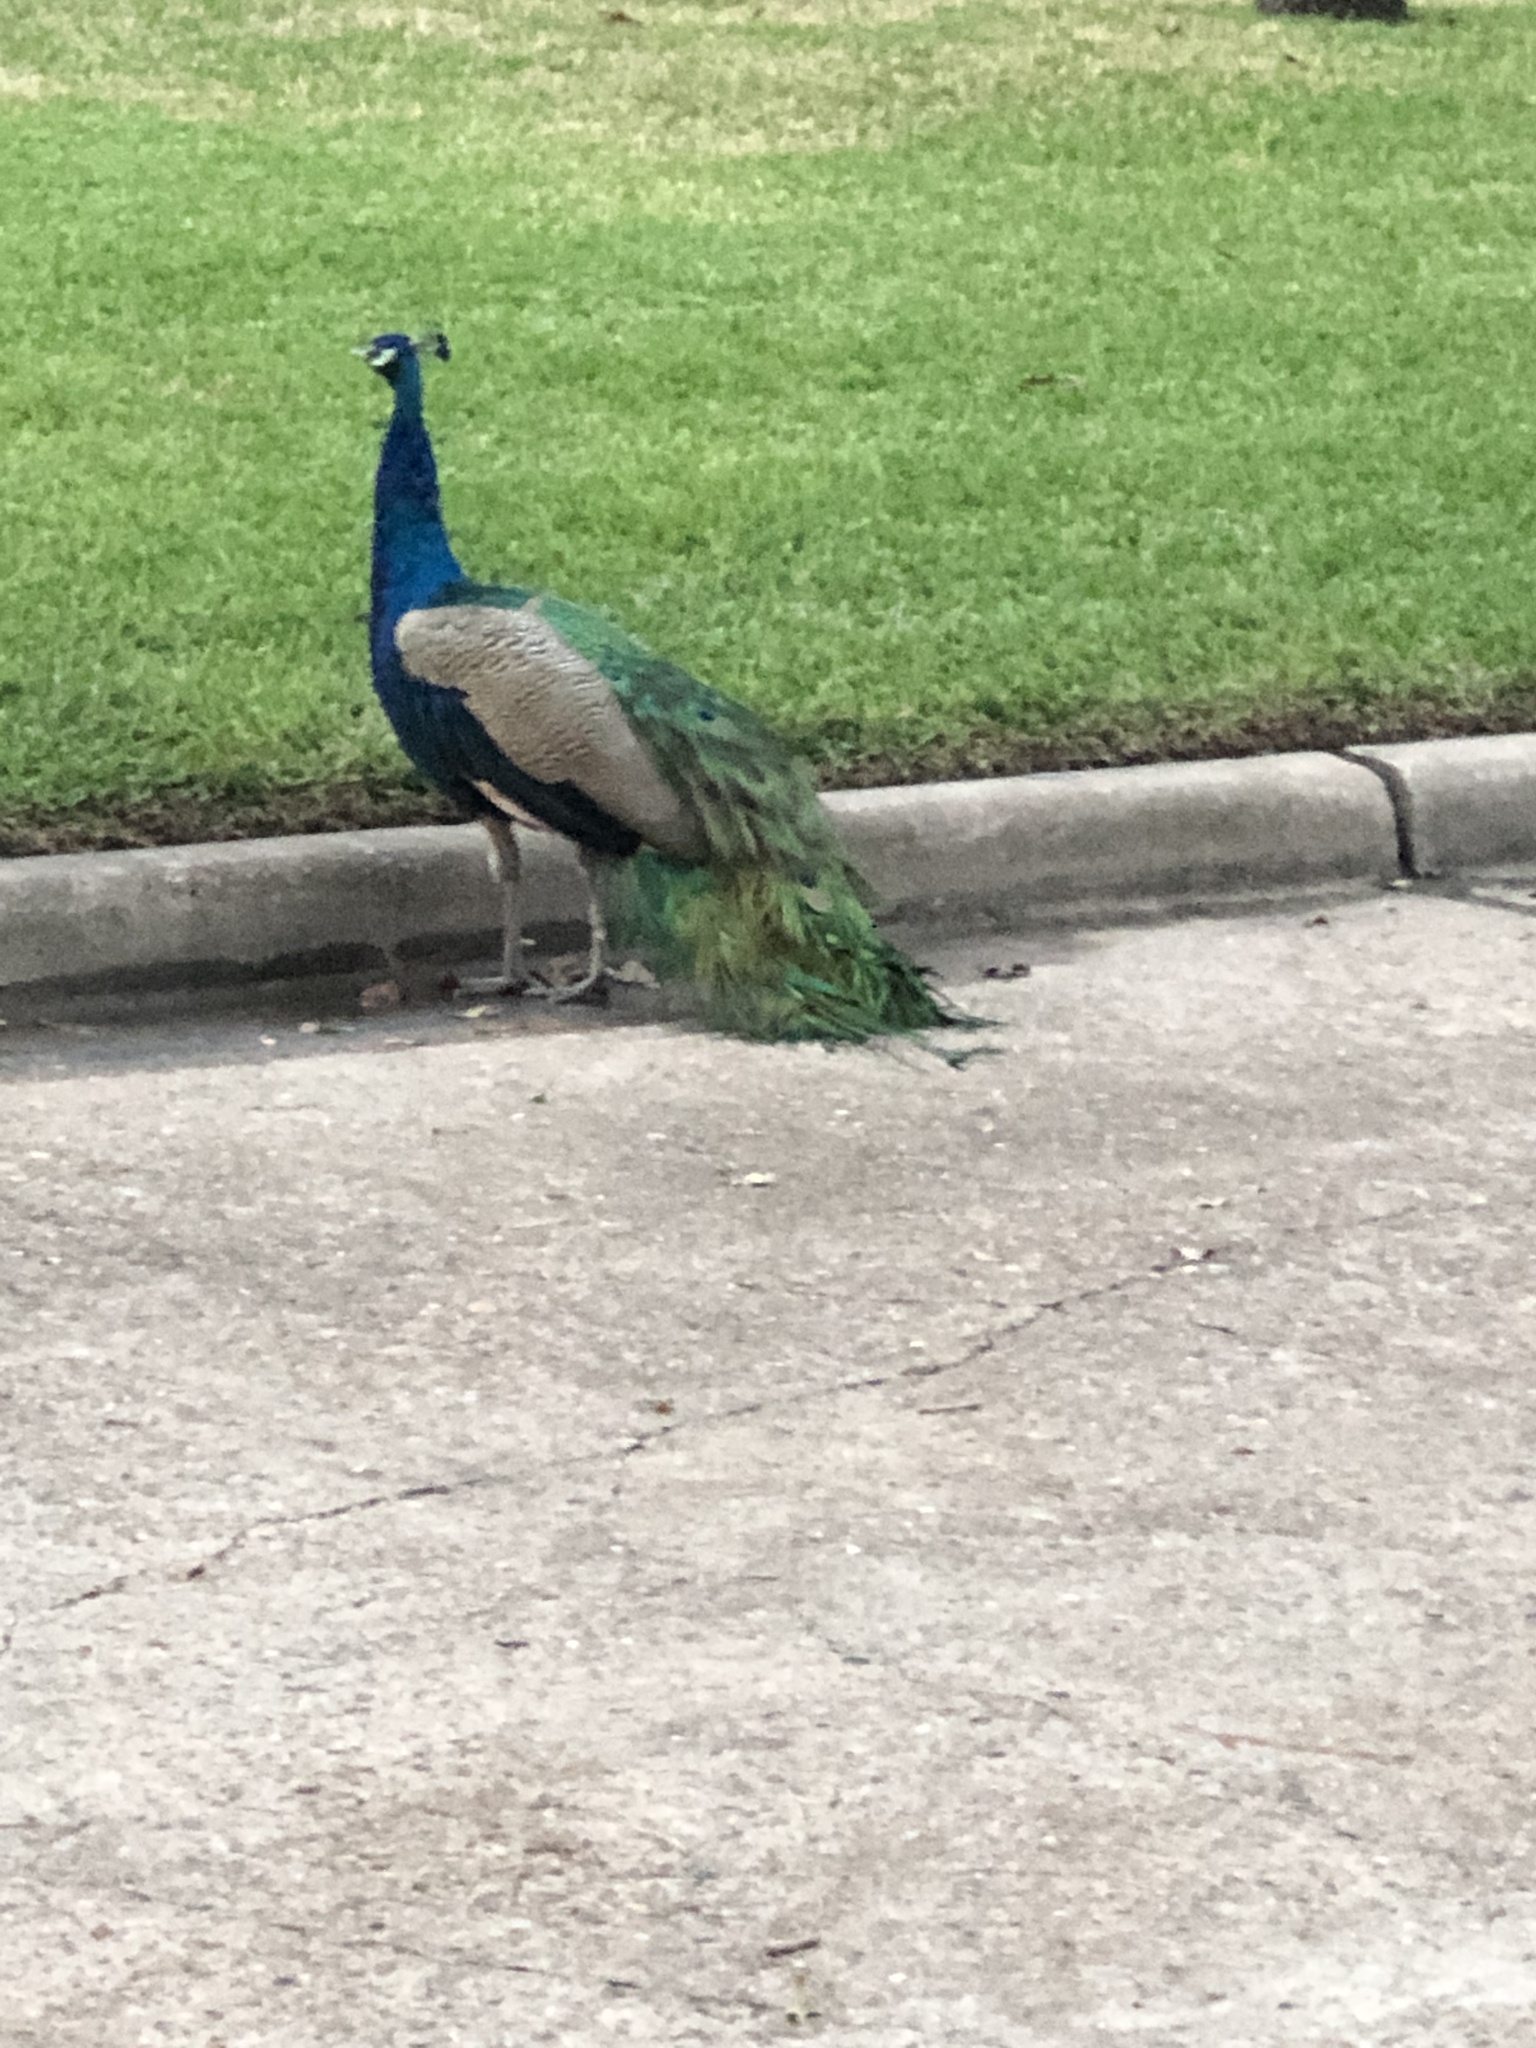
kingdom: Animalia
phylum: Chordata
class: Aves
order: Galliformes
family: Phasianidae
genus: Pavo
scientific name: Pavo cristatus
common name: Indian peafowl
